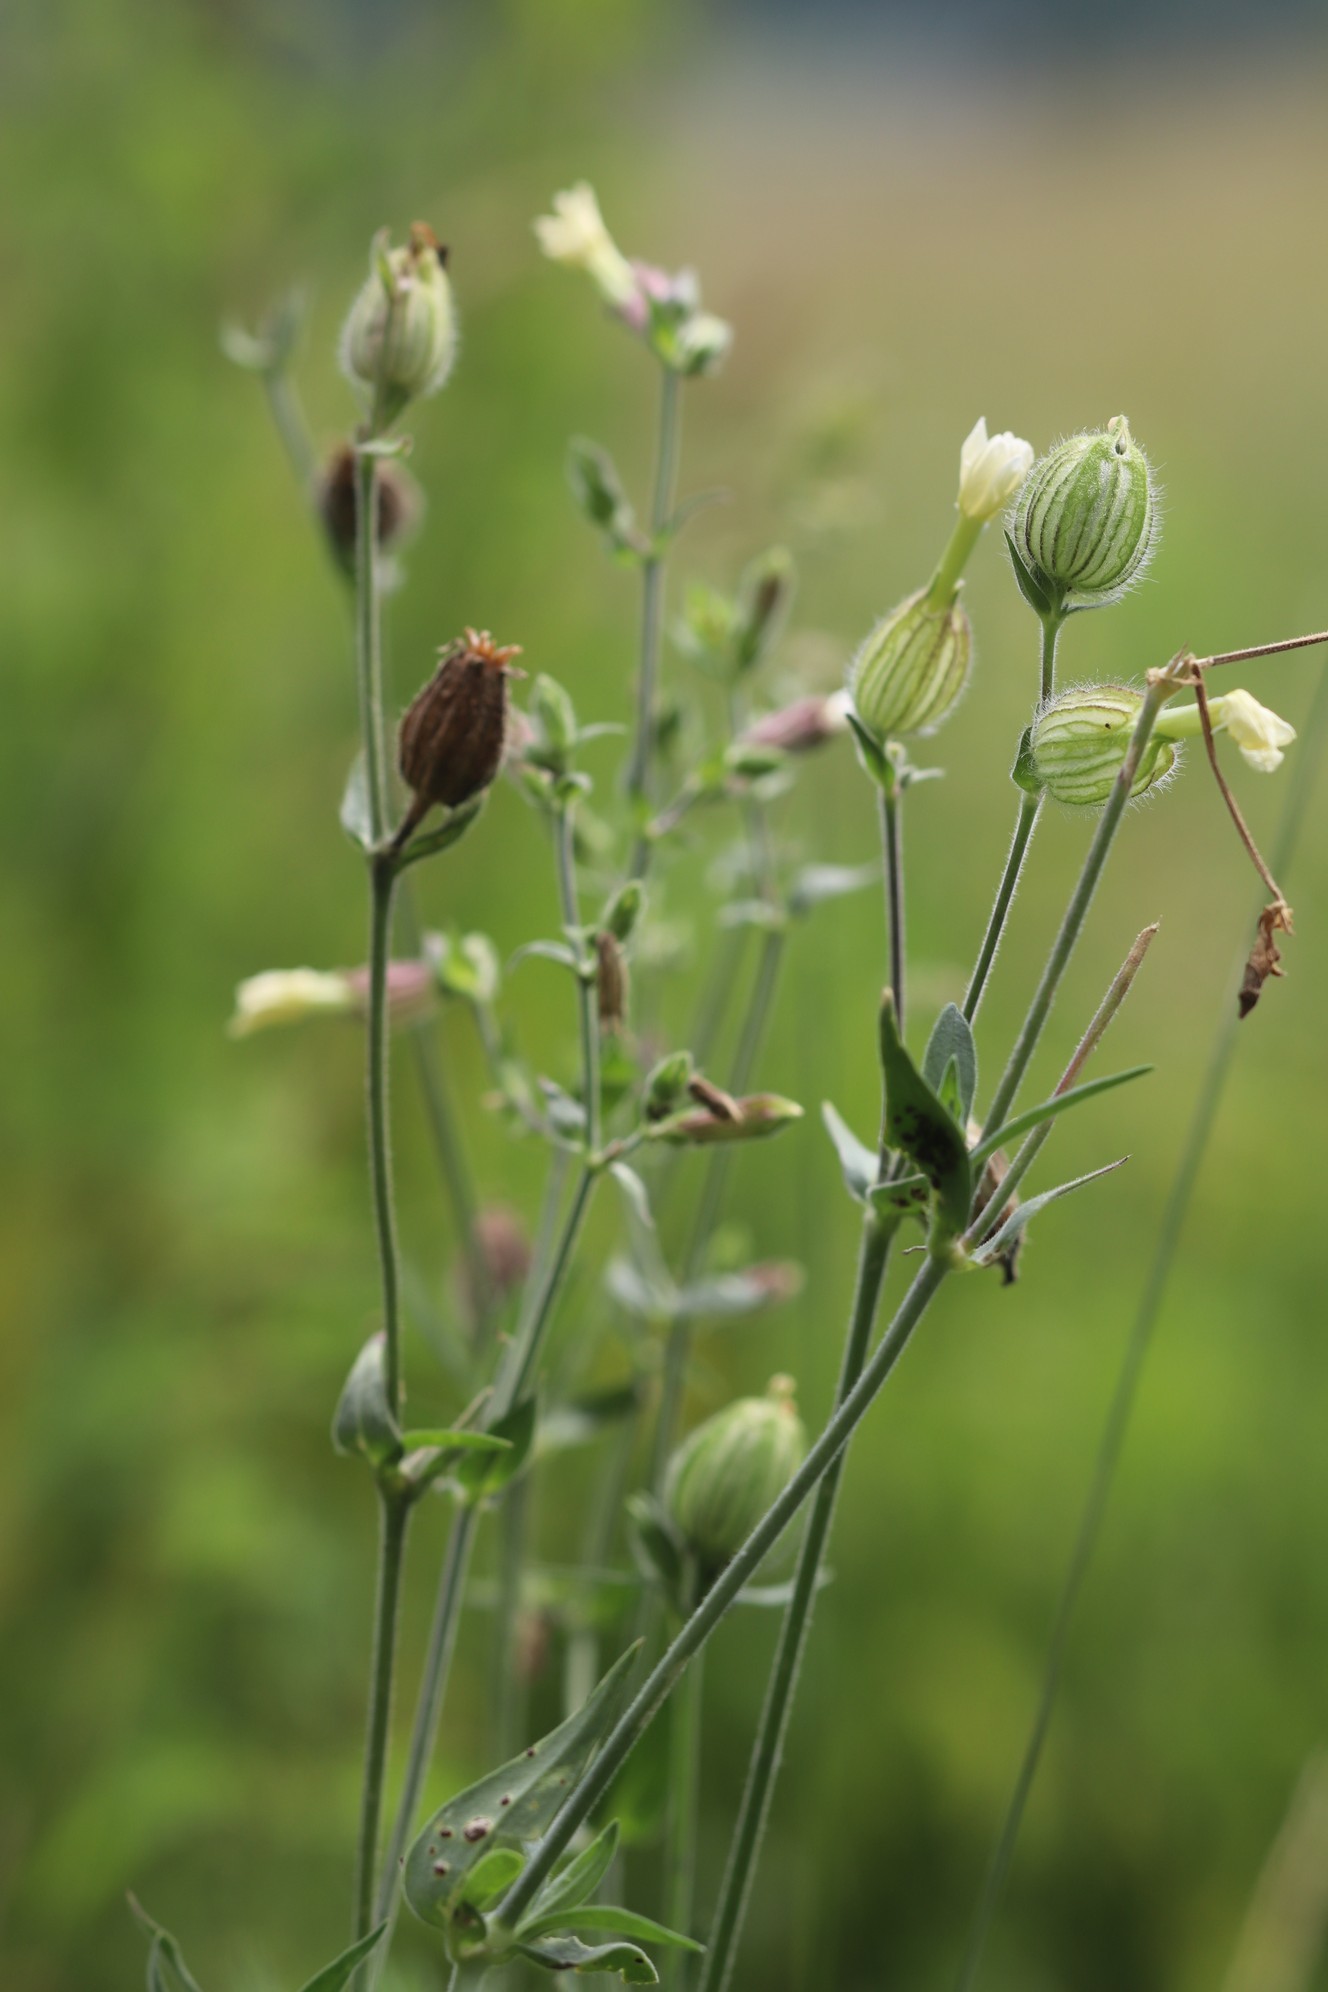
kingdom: Plantae
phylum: Tracheophyta
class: Magnoliopsida
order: Caryophyllales
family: Caryophyllaceae
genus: Silene
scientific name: Silene latifolia
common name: White campion
